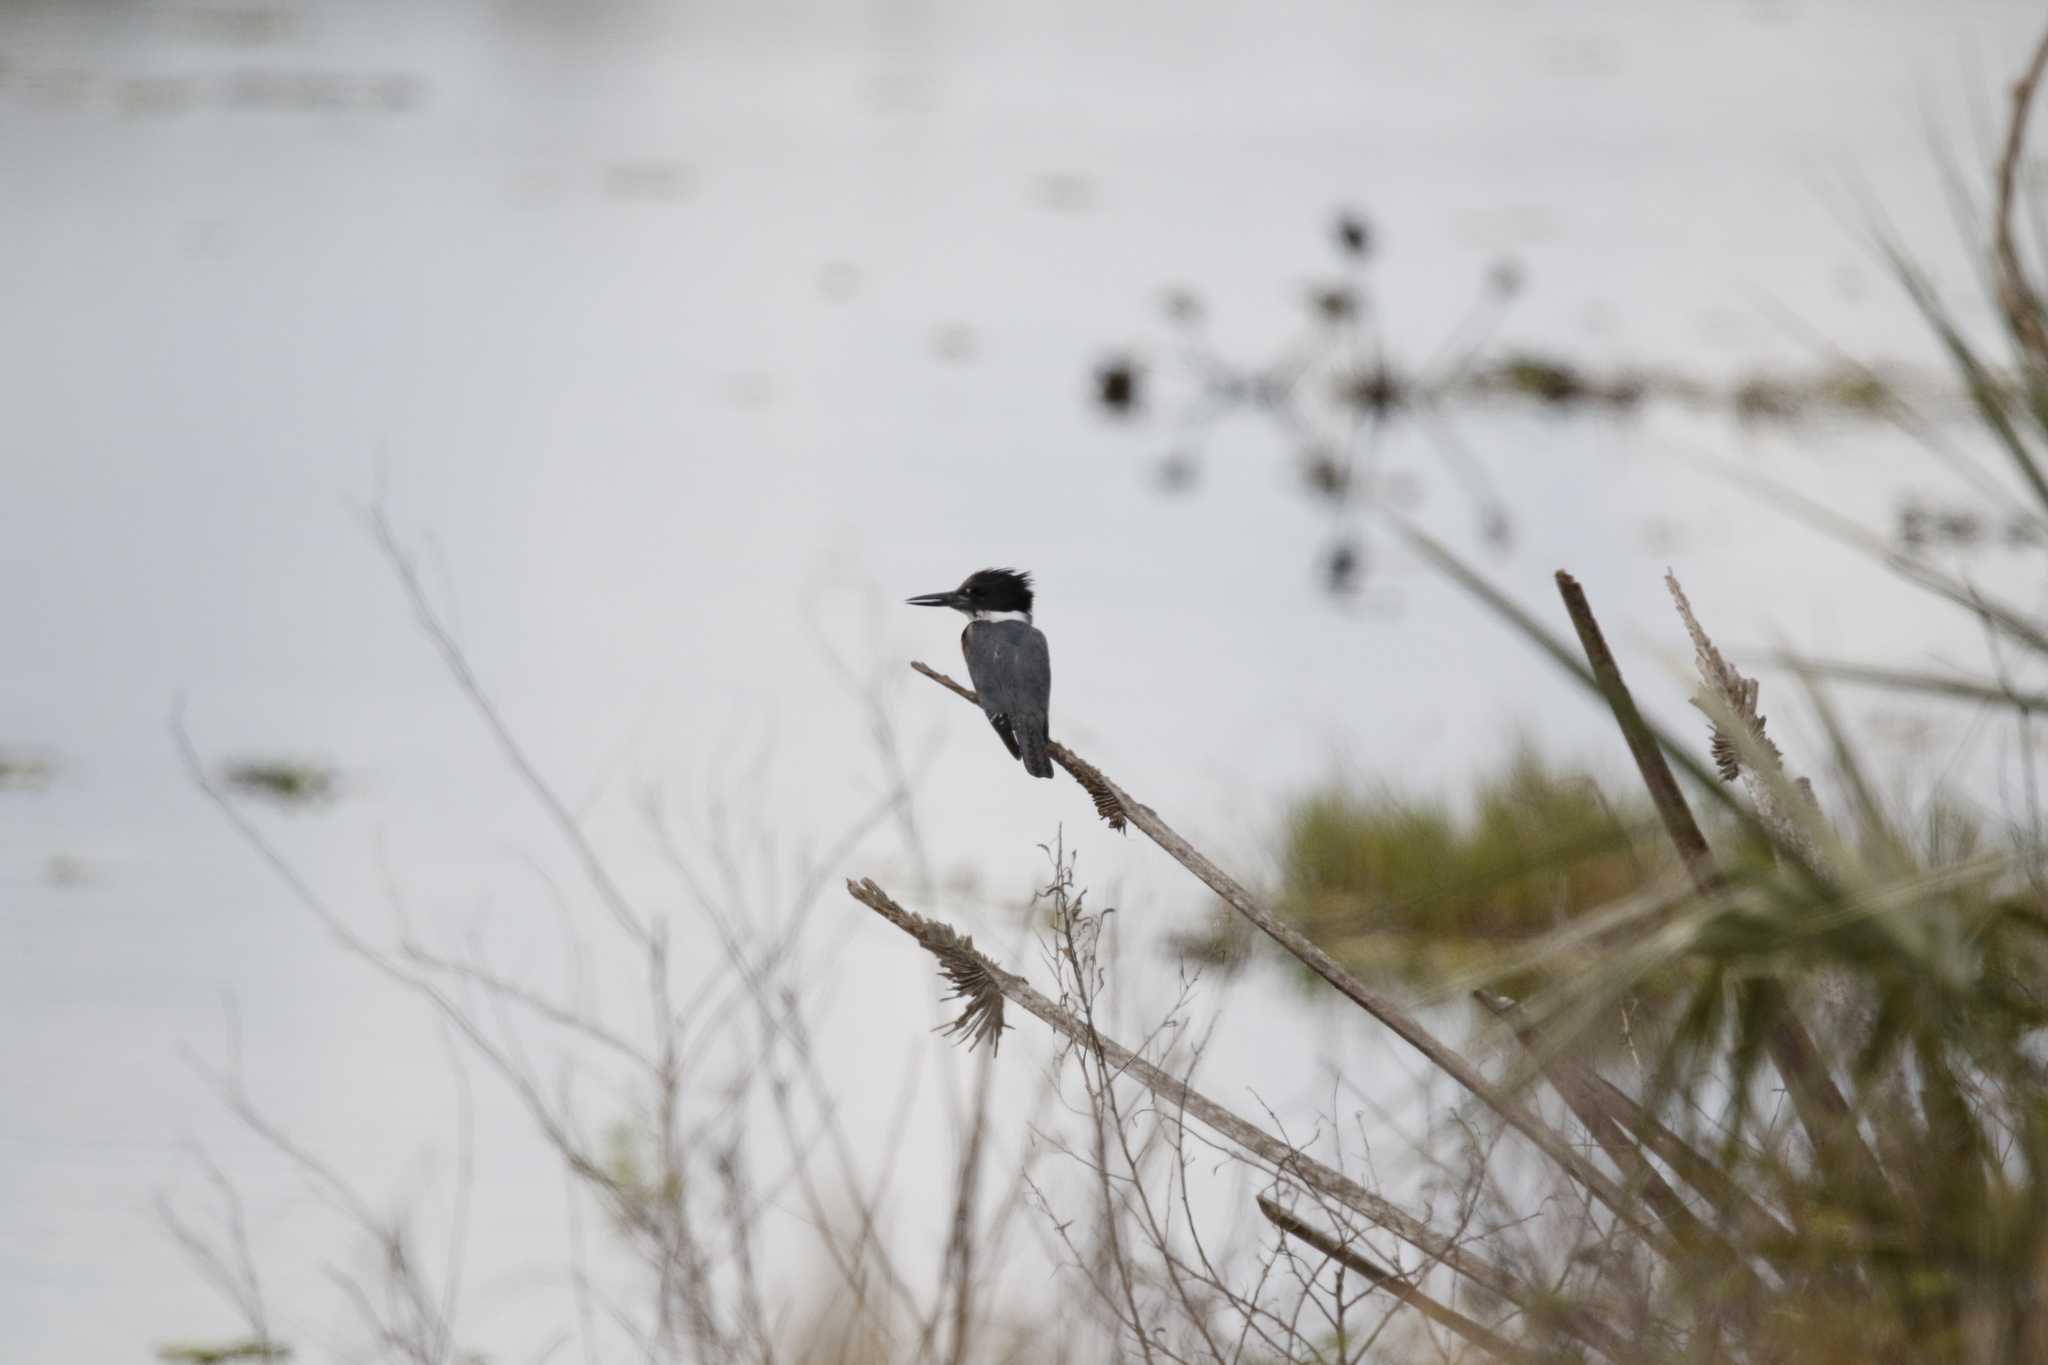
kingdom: Animalia
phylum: Chordata
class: Aves
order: Coraciiformes
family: Alcedinidae
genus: Megaceryle
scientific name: Megaceryle alcyon
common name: Belted kingfisher
